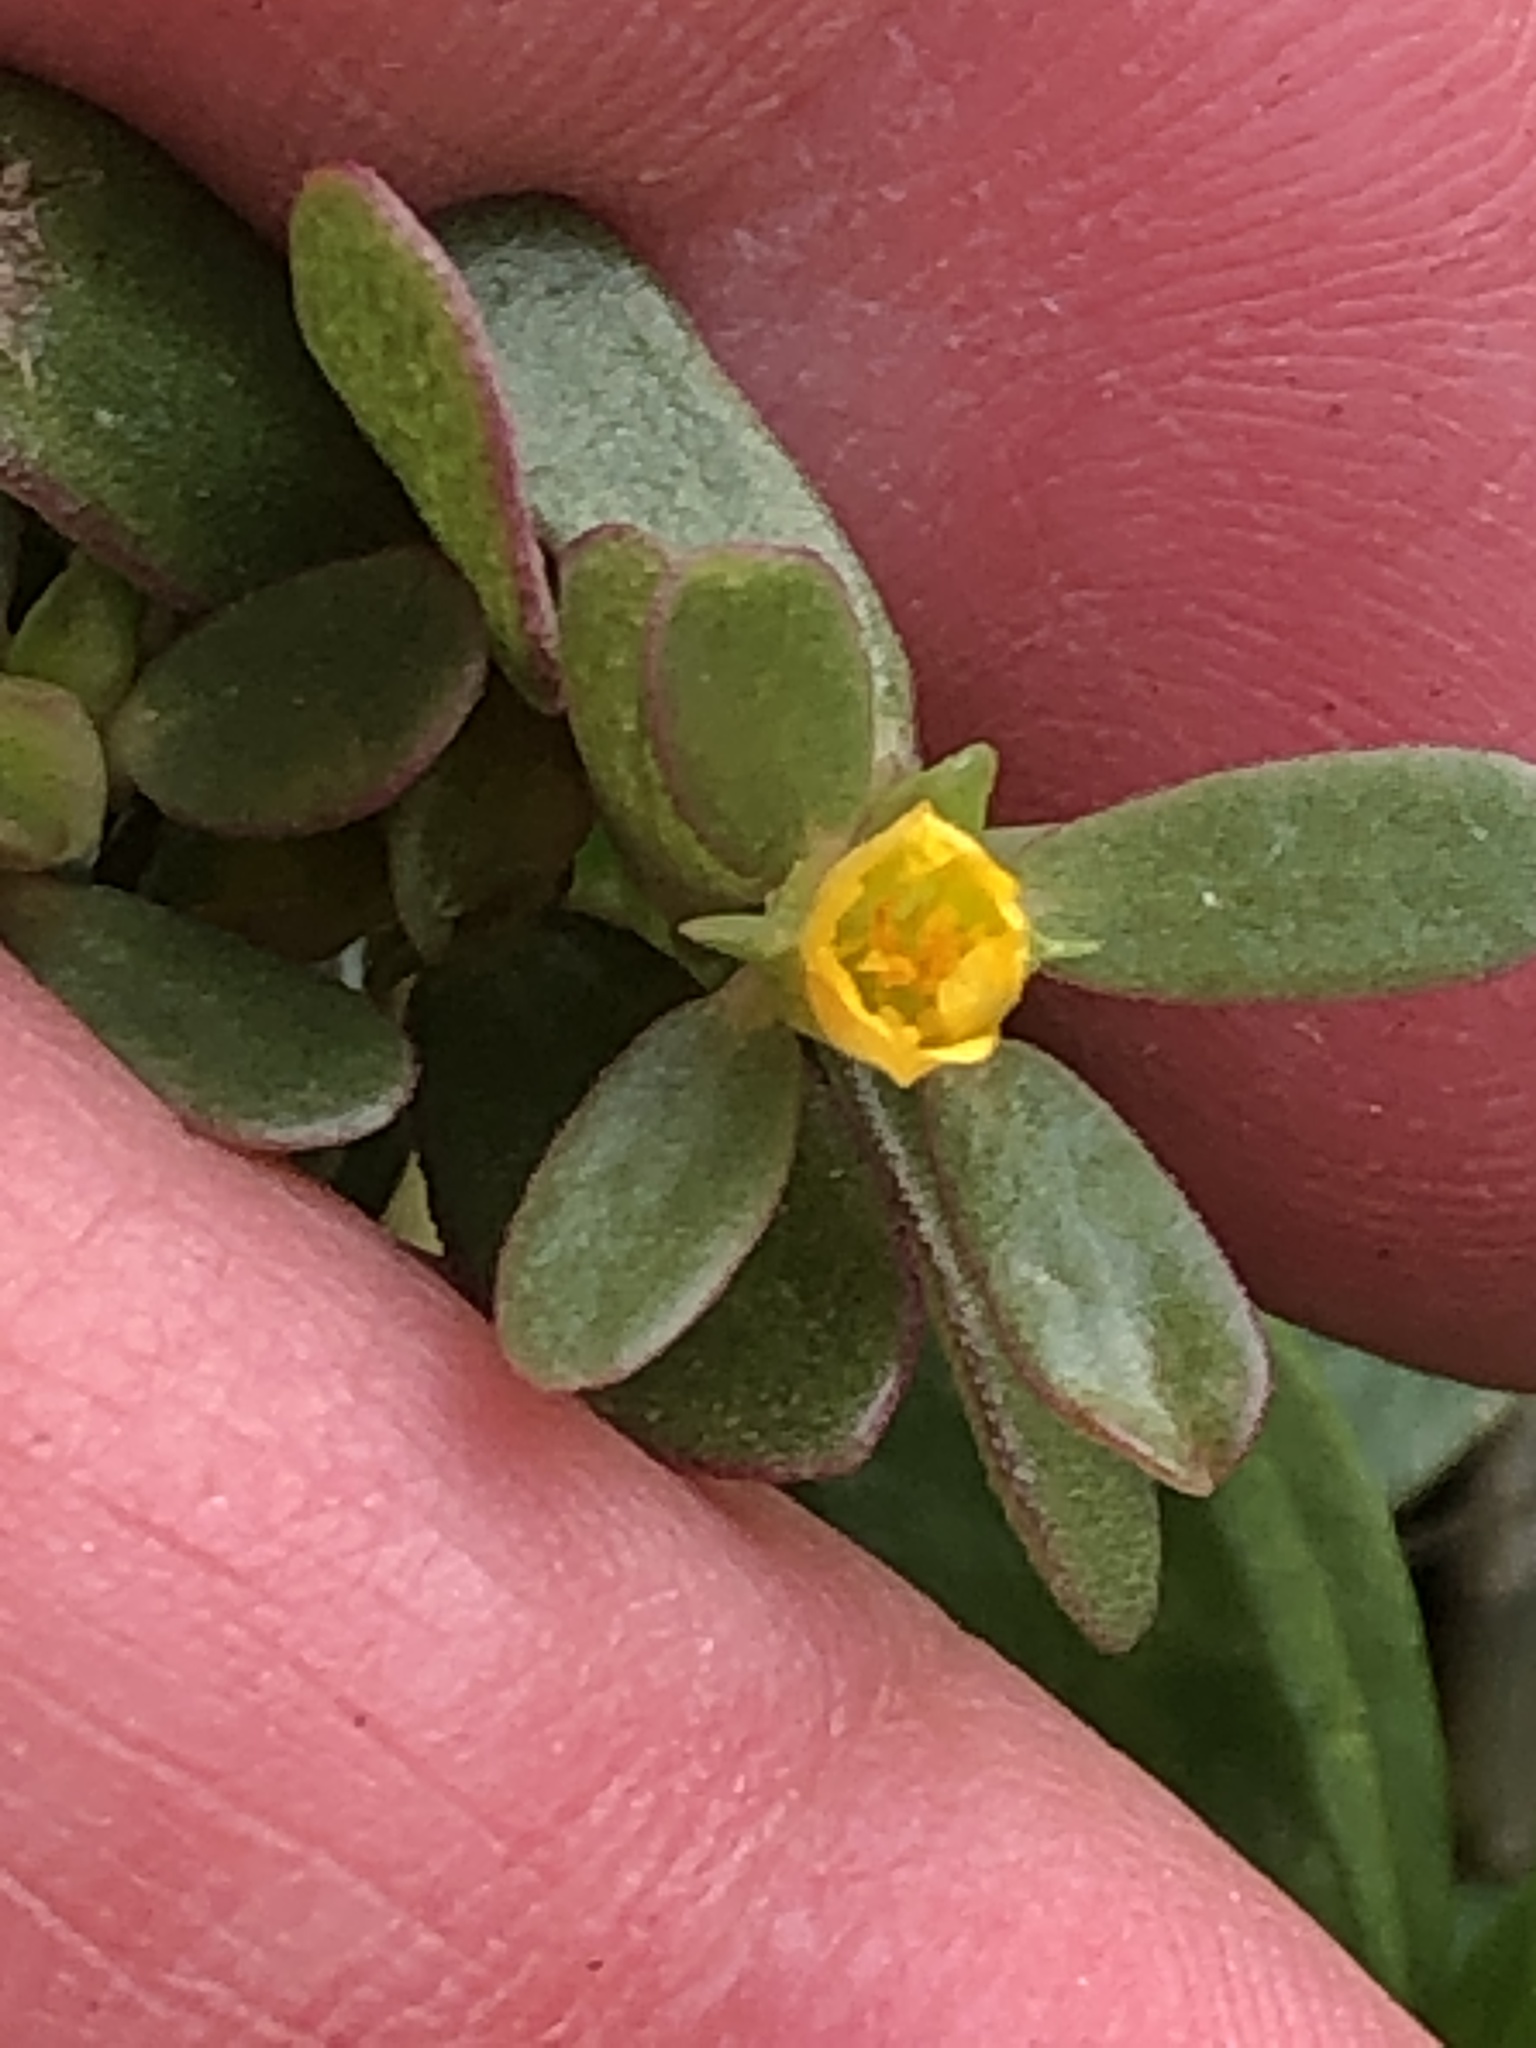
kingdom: Plantae
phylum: Tracheophyta
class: Magnoliopsida
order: Caryophyllales
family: Portulacaceae
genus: Portulaca
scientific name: Portulaca oleracea
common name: Common purslane
